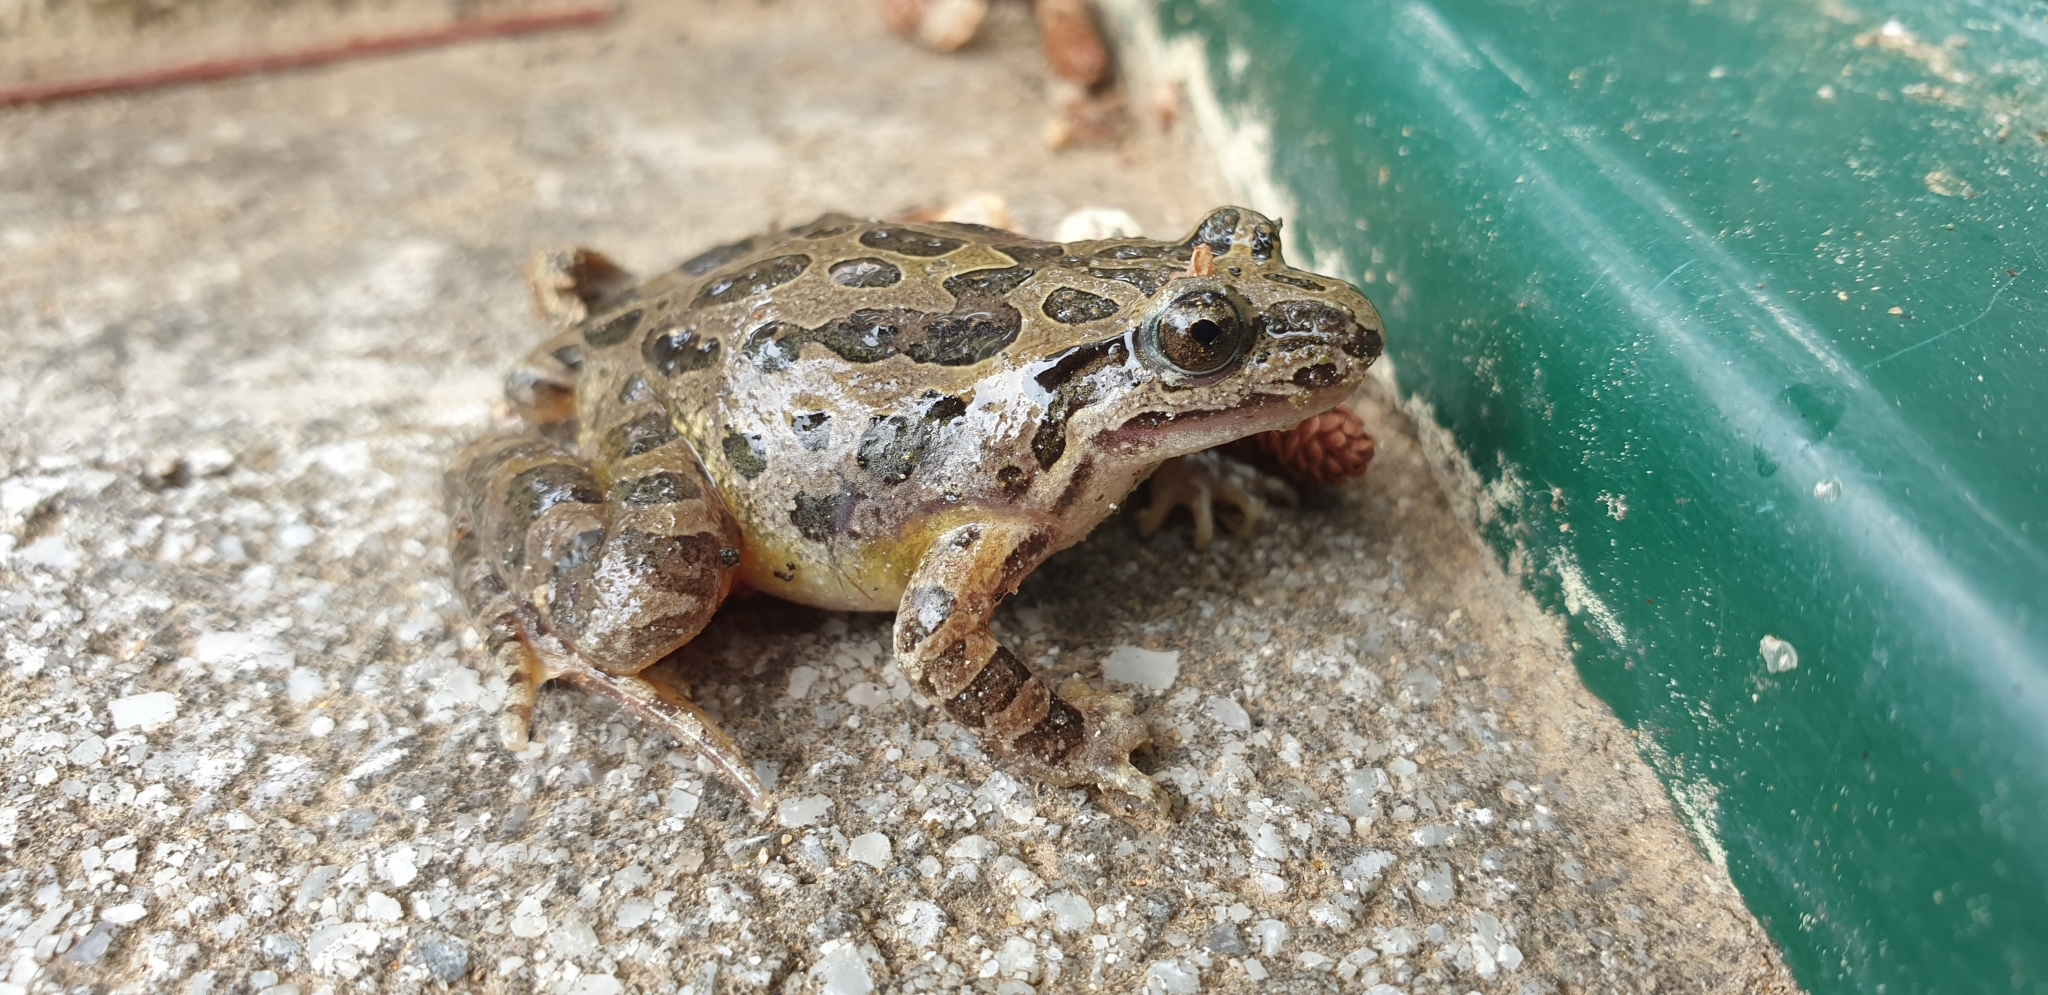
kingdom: Animalia
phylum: Chordata
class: Amphibia
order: Anura
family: Alytidae
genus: Discoglossus
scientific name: Discoglossus pictus
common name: Painted frog
